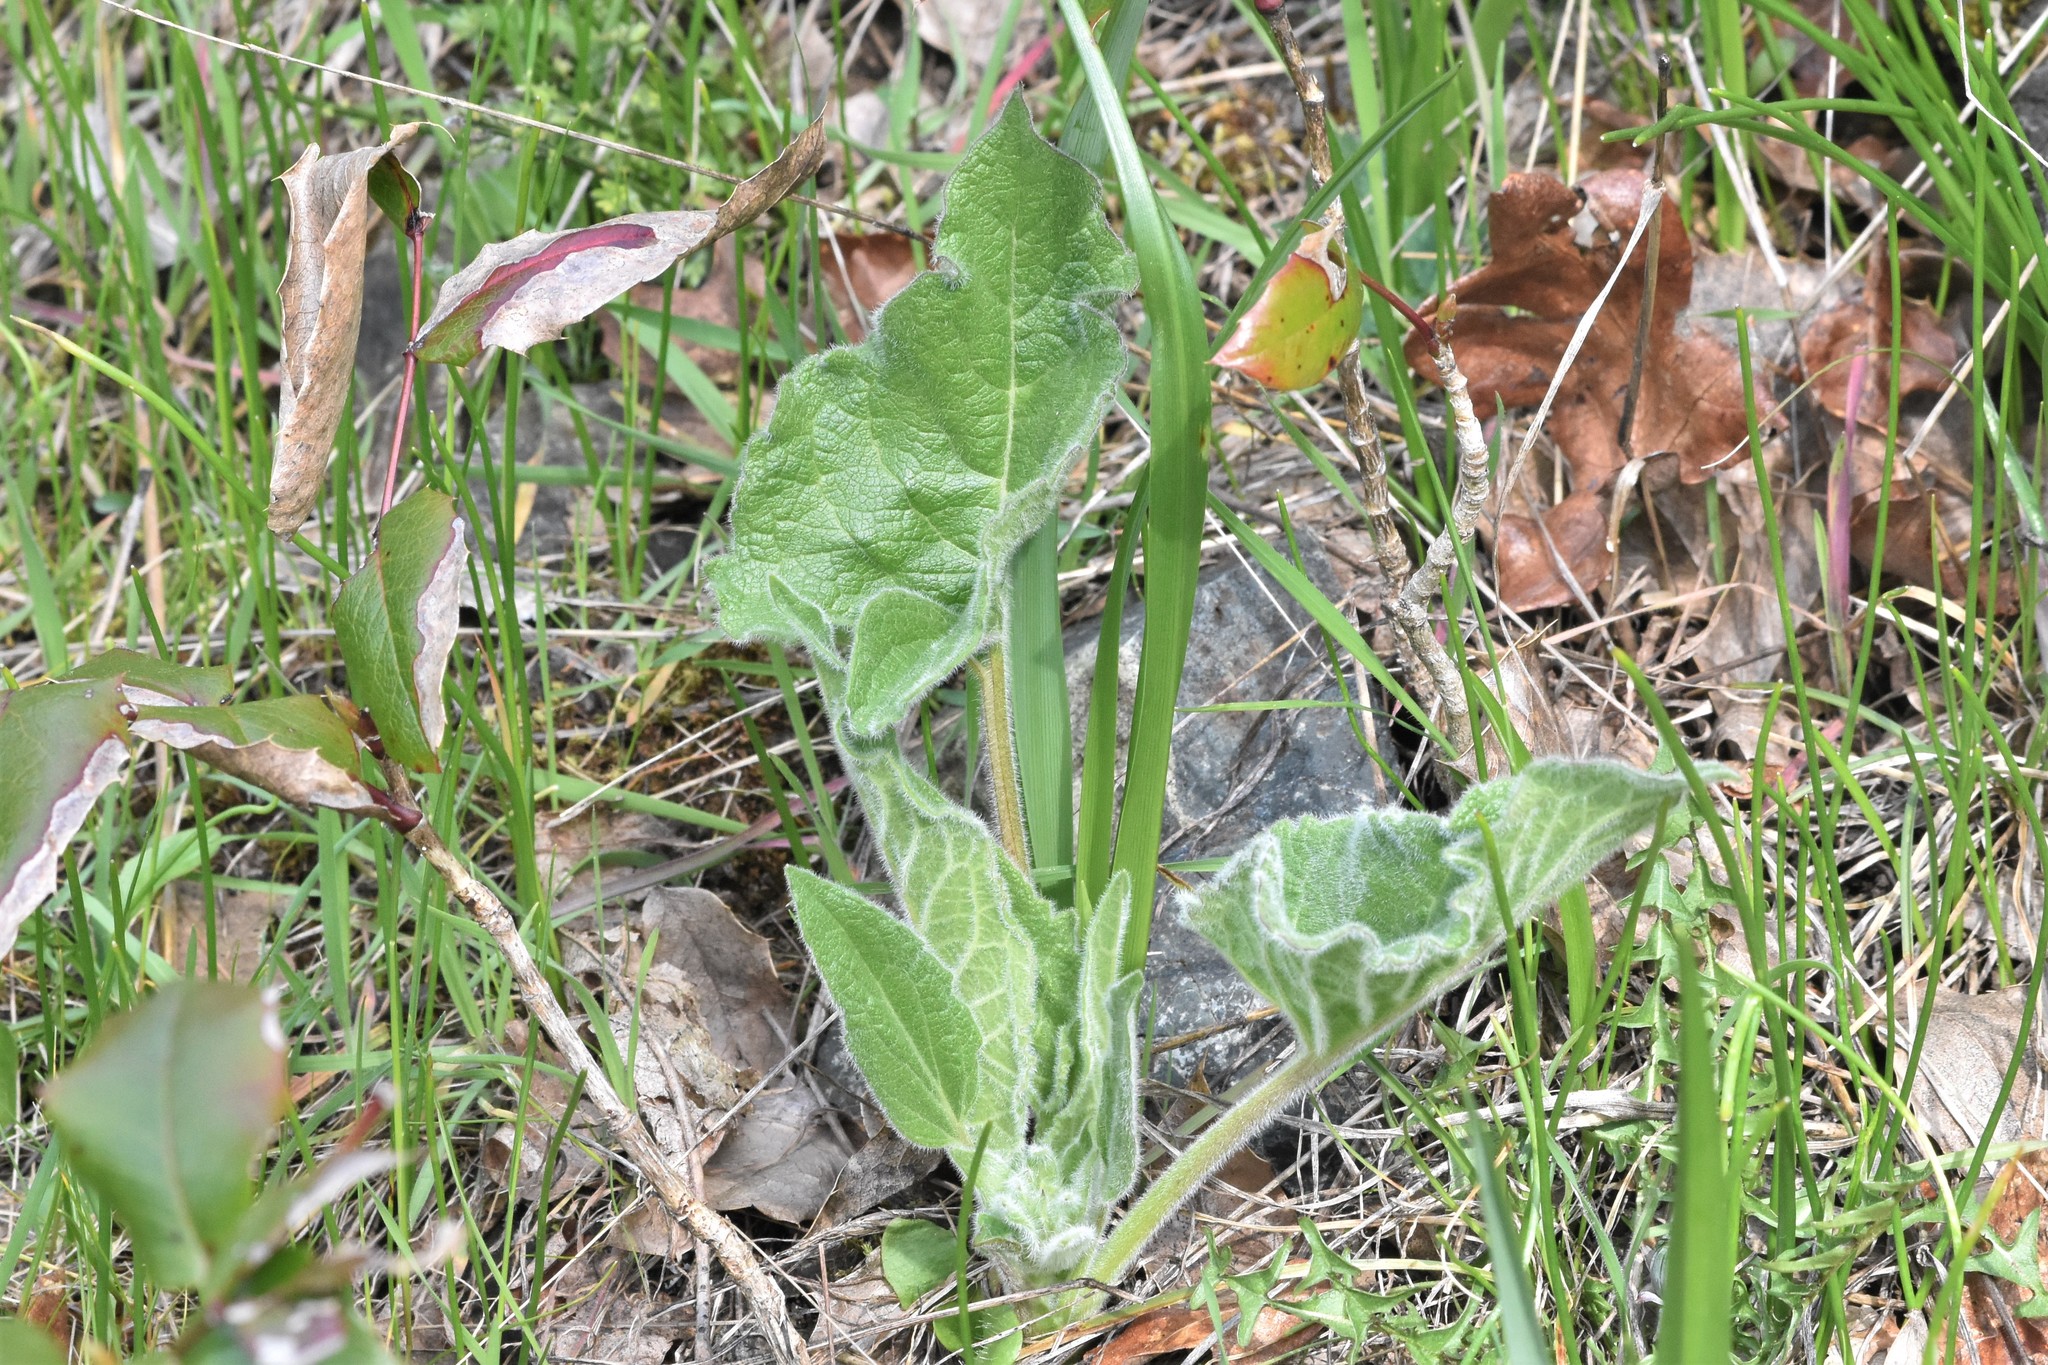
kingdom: Plantae
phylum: Tracheophyta
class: Magnoliopsida
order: Asterales
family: Asteraceae
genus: Balsamorhiza
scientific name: Balsamorhiza deltoidea
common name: Deltoid balsamroot
